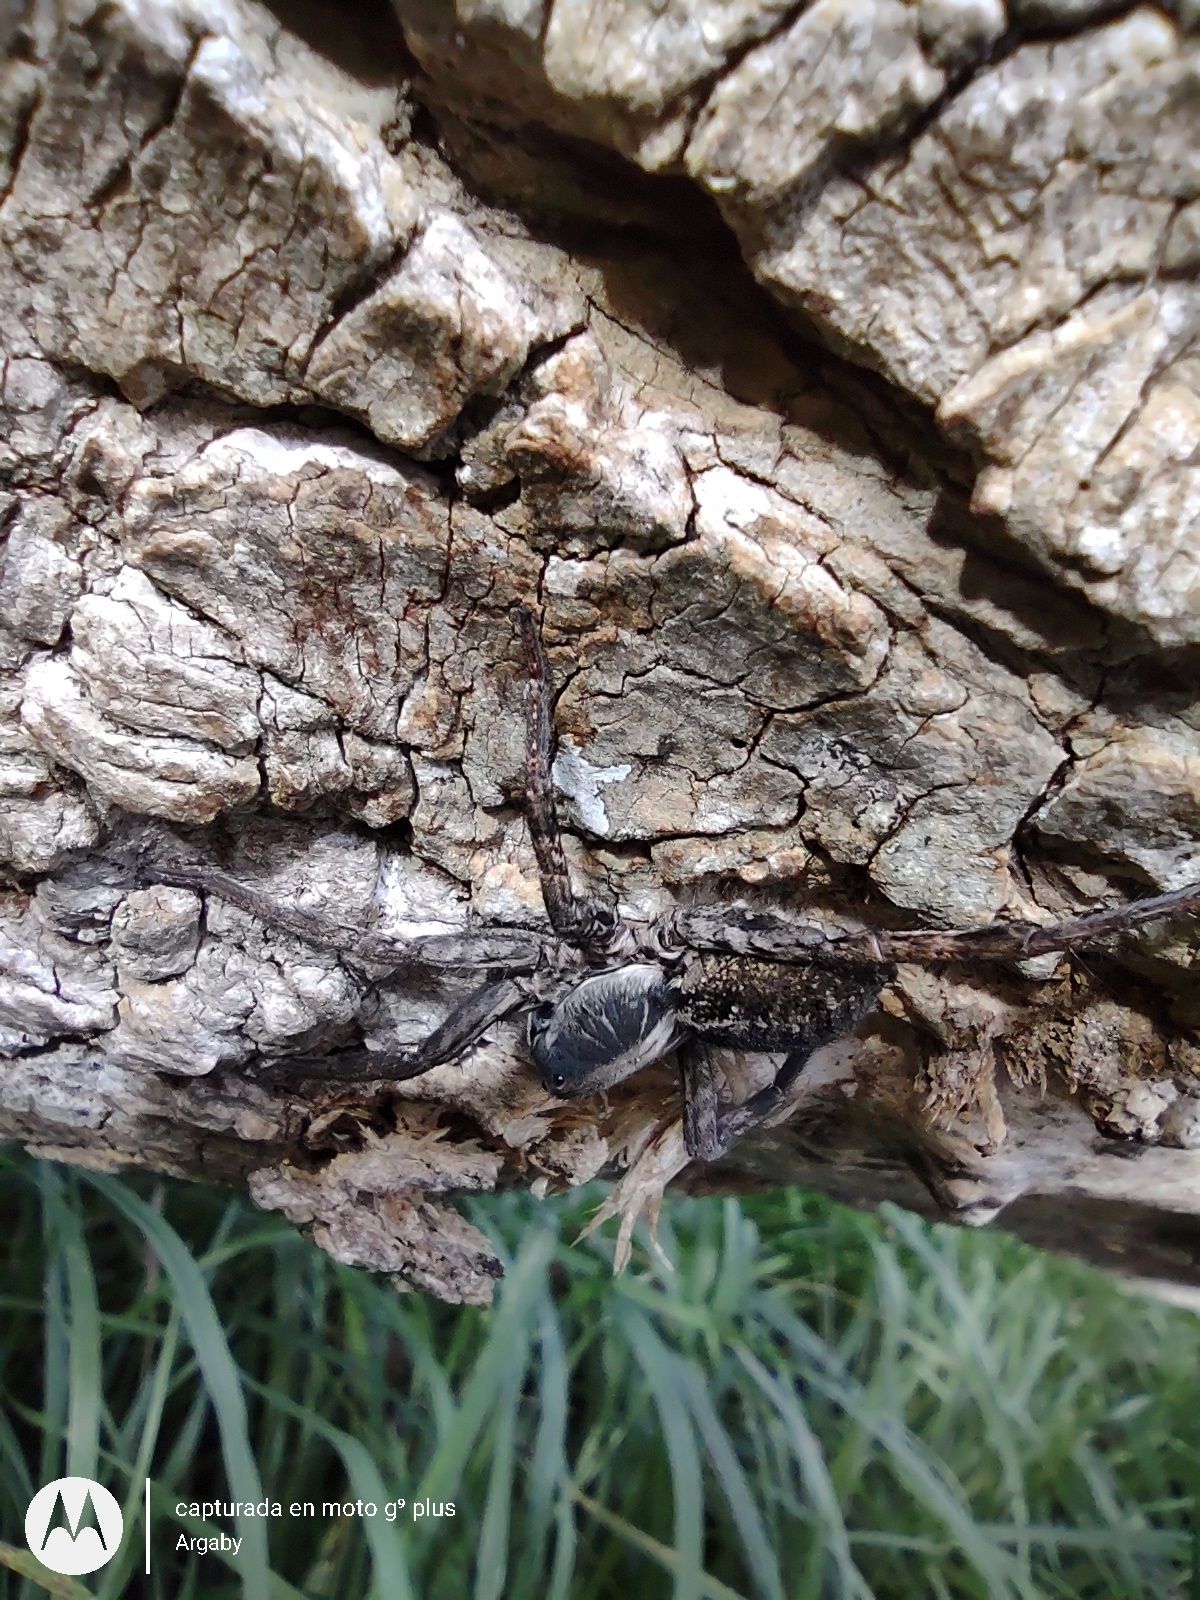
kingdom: Animalia
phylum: Arthropoda
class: Arachnida
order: Araneae
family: Lycosidae
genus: Schizocosa
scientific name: Schizocosa malitiosa
